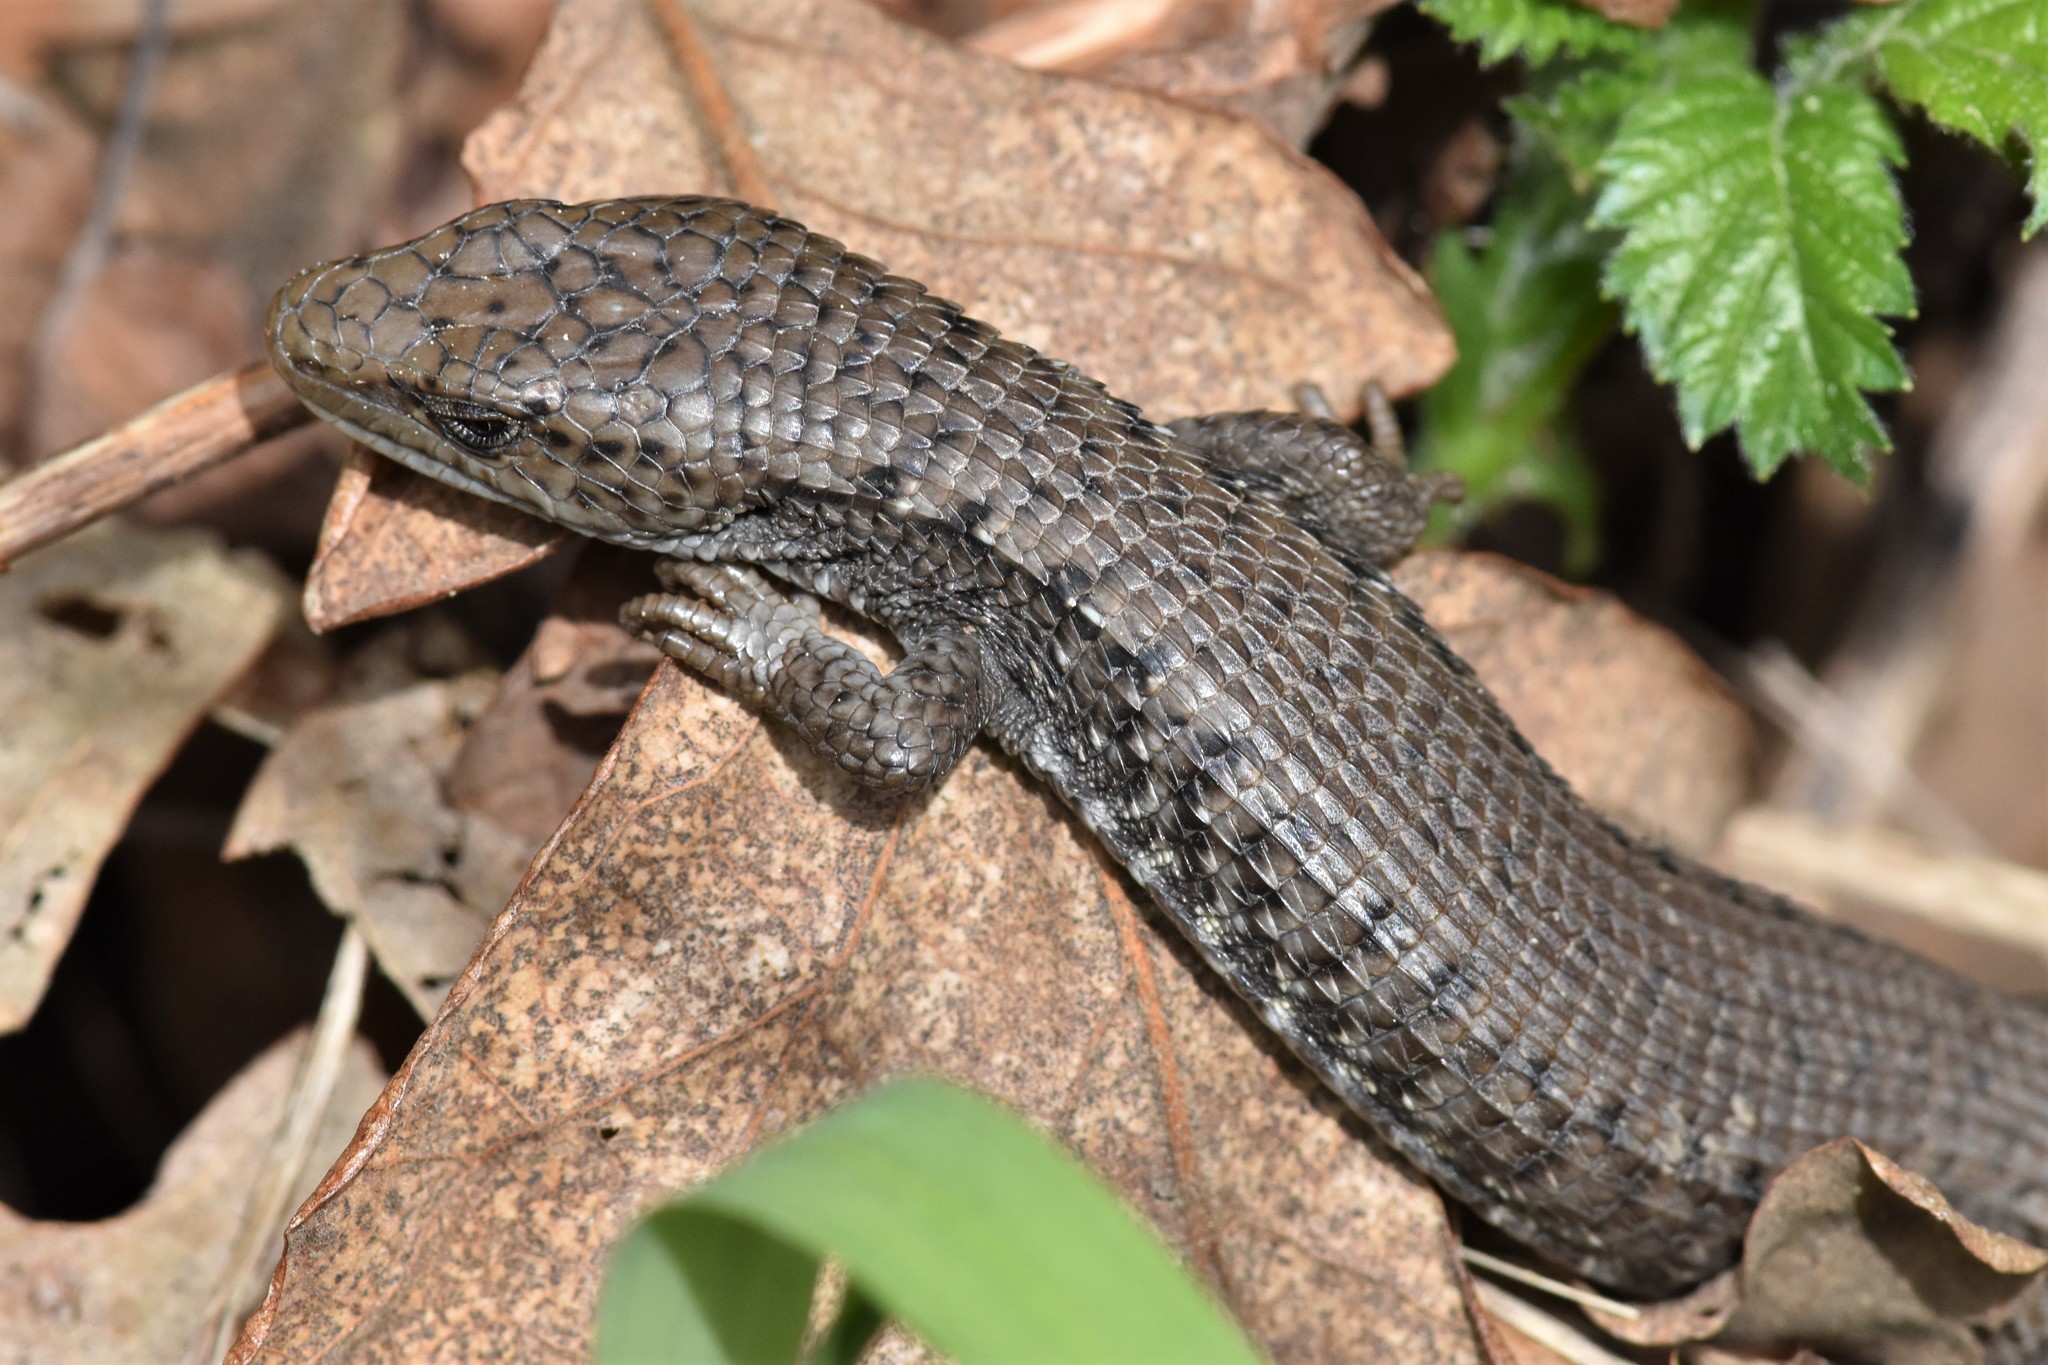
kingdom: Animalia
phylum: Chordata
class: Squamata
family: Anguidae
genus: Elgaria
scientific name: Elgaria coerulea
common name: Northern alligator lizard
